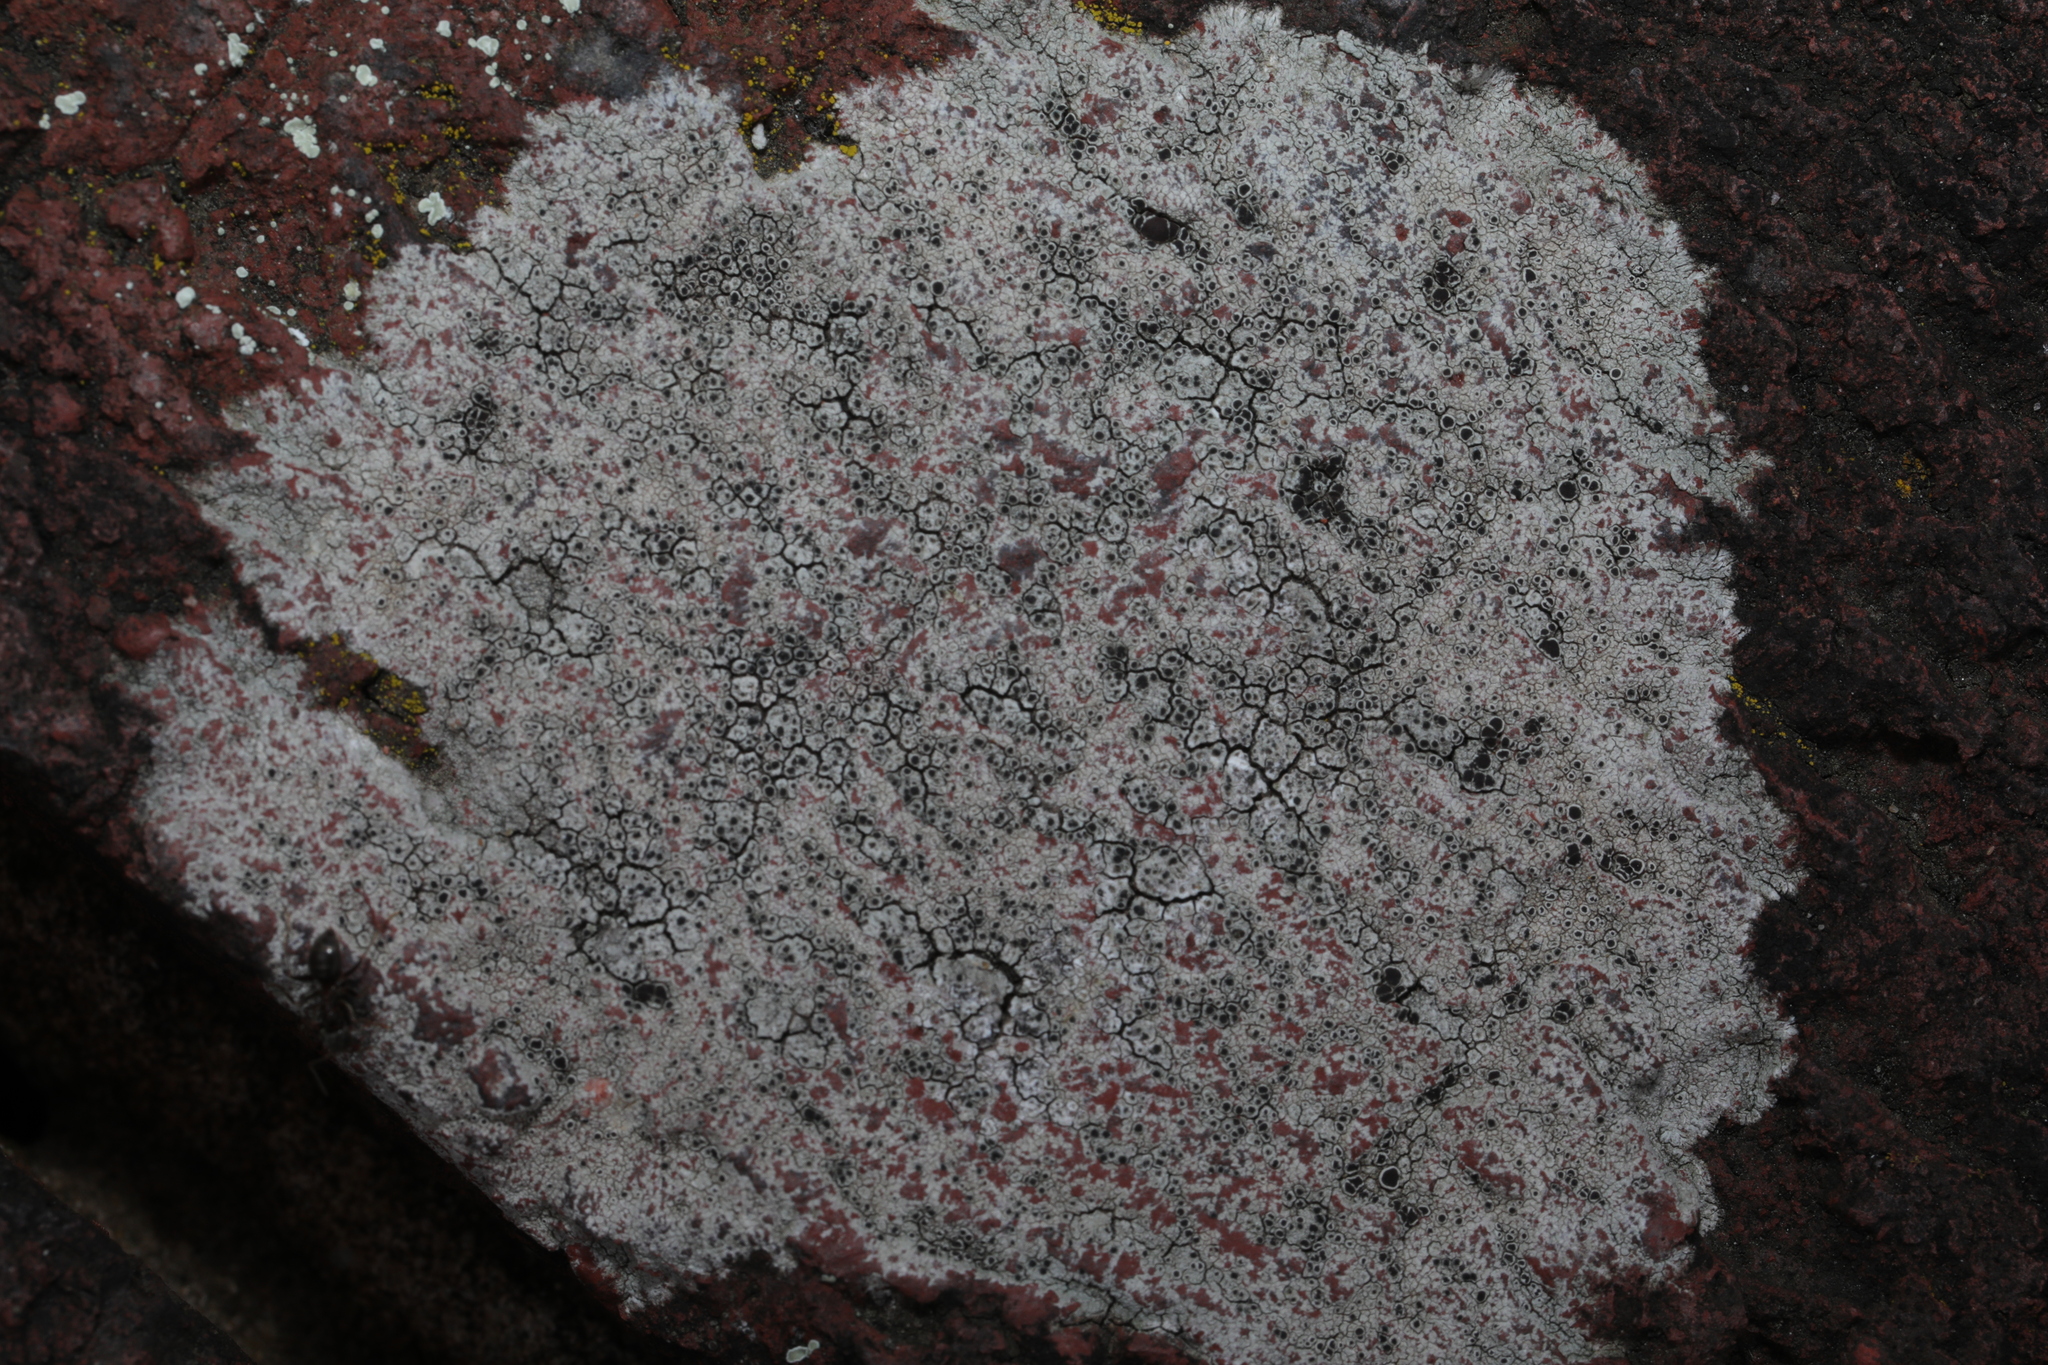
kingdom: Fungi
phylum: Ascomycota
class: Lecanoromycetes
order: Lecanorales
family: Lecanoraceae
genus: Lecanora
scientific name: Lecanora campestris
